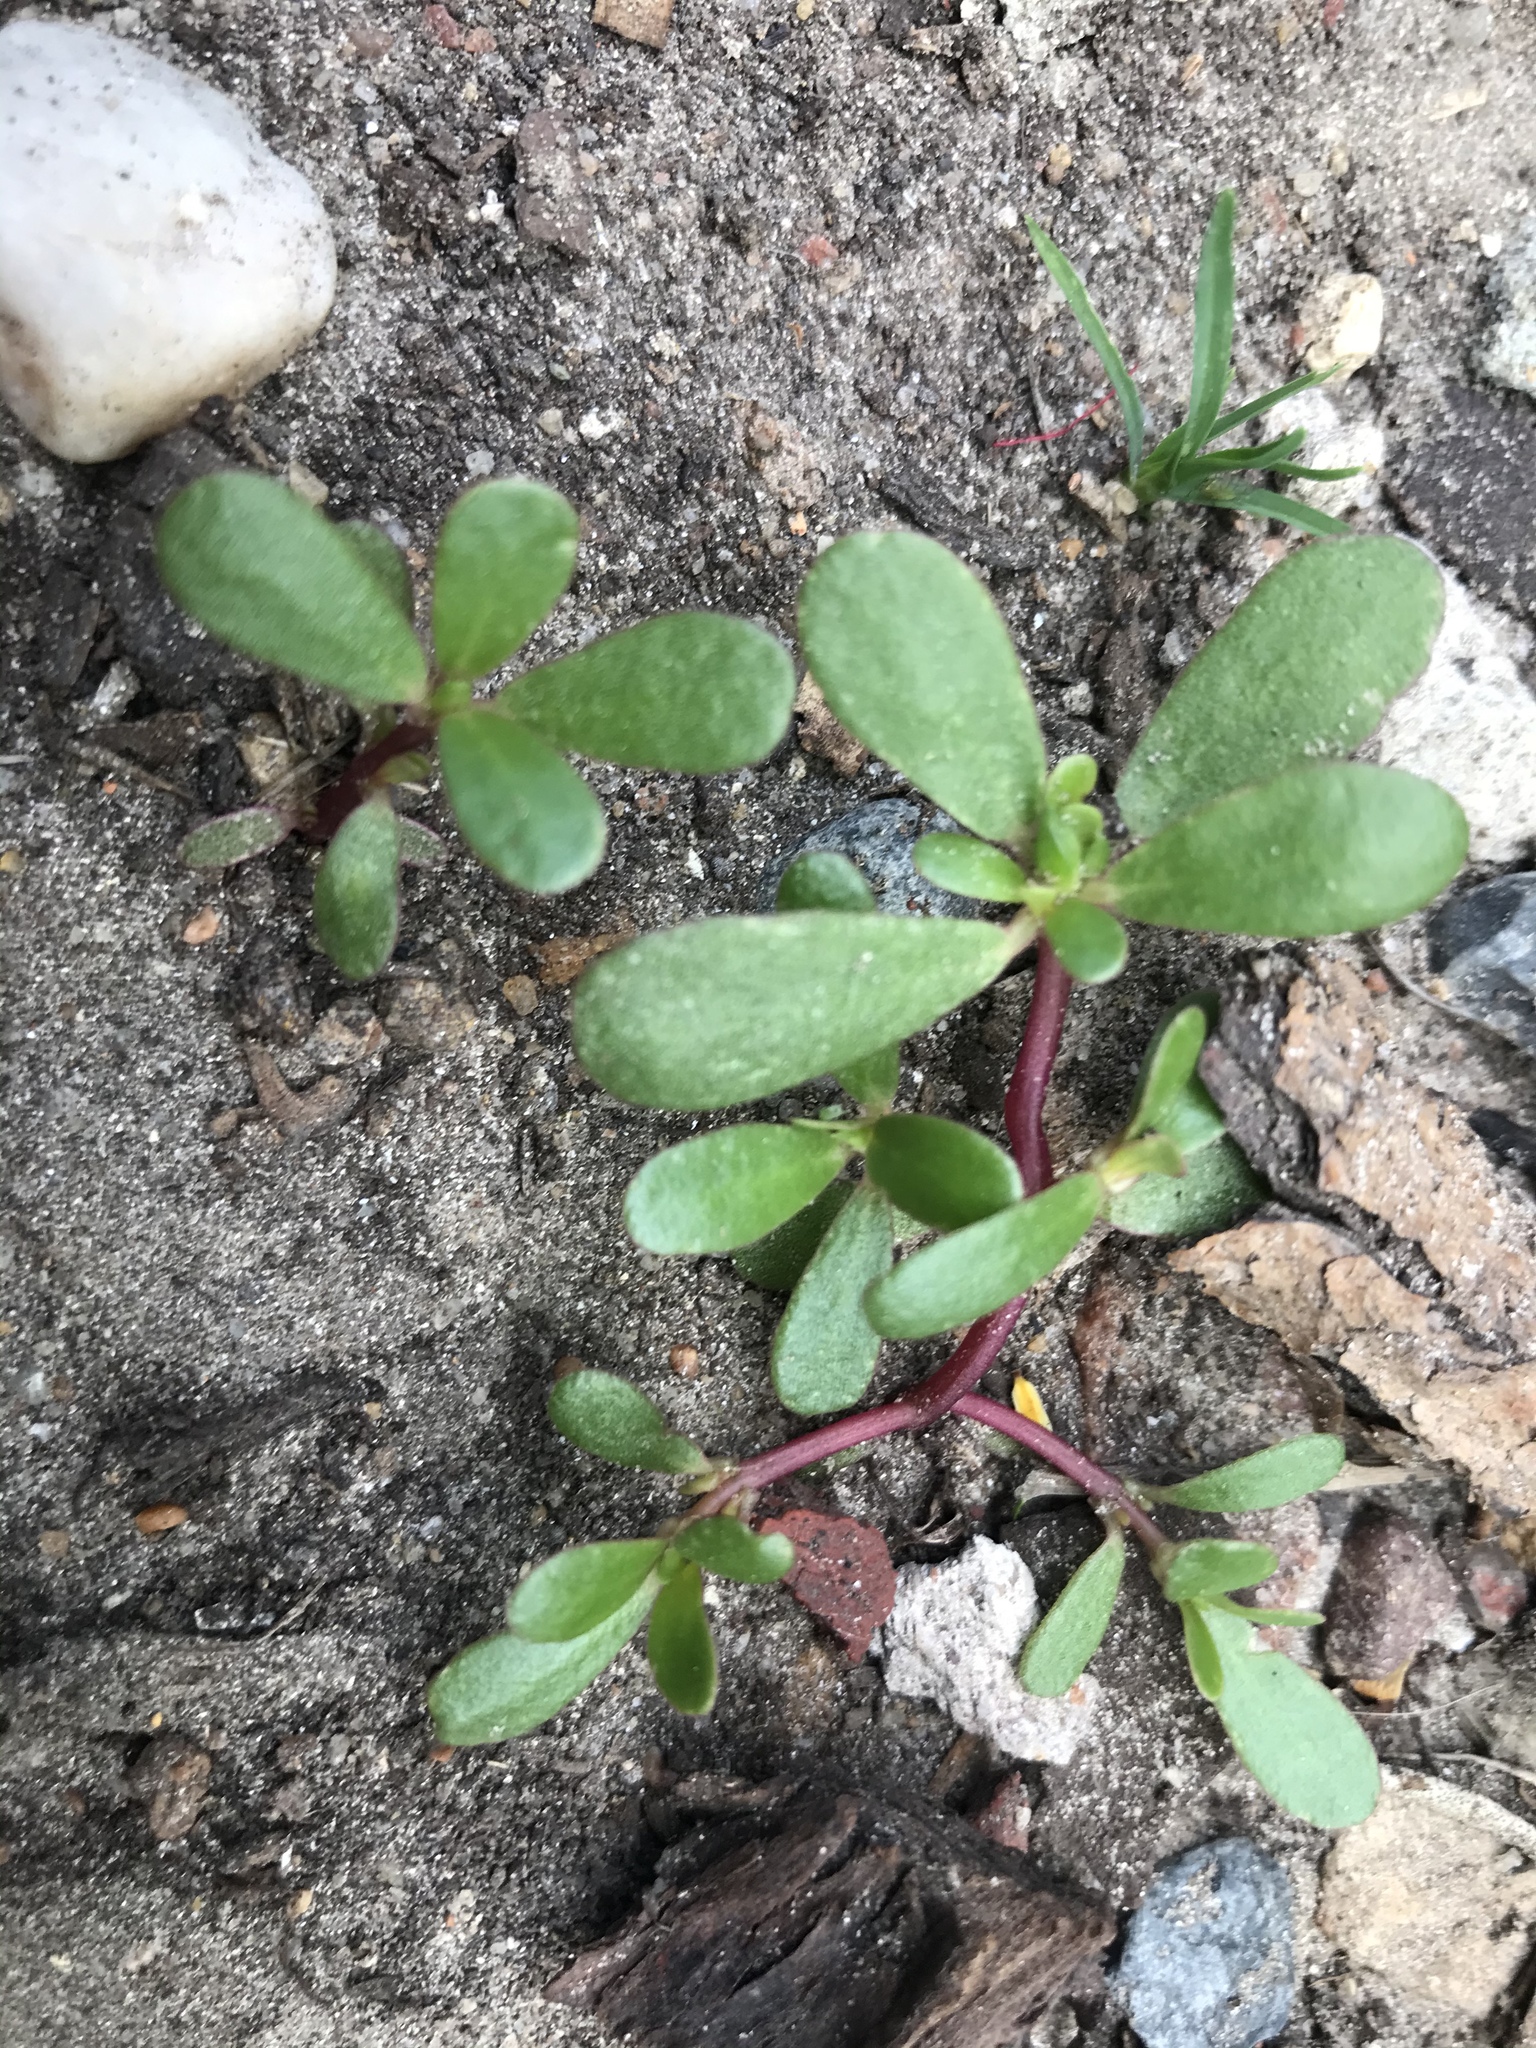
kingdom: Plantae
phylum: Tracheophyta
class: Magnoliopsida
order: Caryophyllales
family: Portulacaceae
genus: Portulaca
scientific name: Portulaca oleracea
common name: Common purslane
